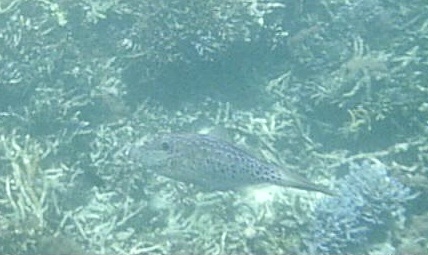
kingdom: Animalia
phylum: Chordata
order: Tetraodontiformes
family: Monacanthidae
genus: Aluterus
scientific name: Aluterus scriptus
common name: Scribbled leatherjacket filefish
